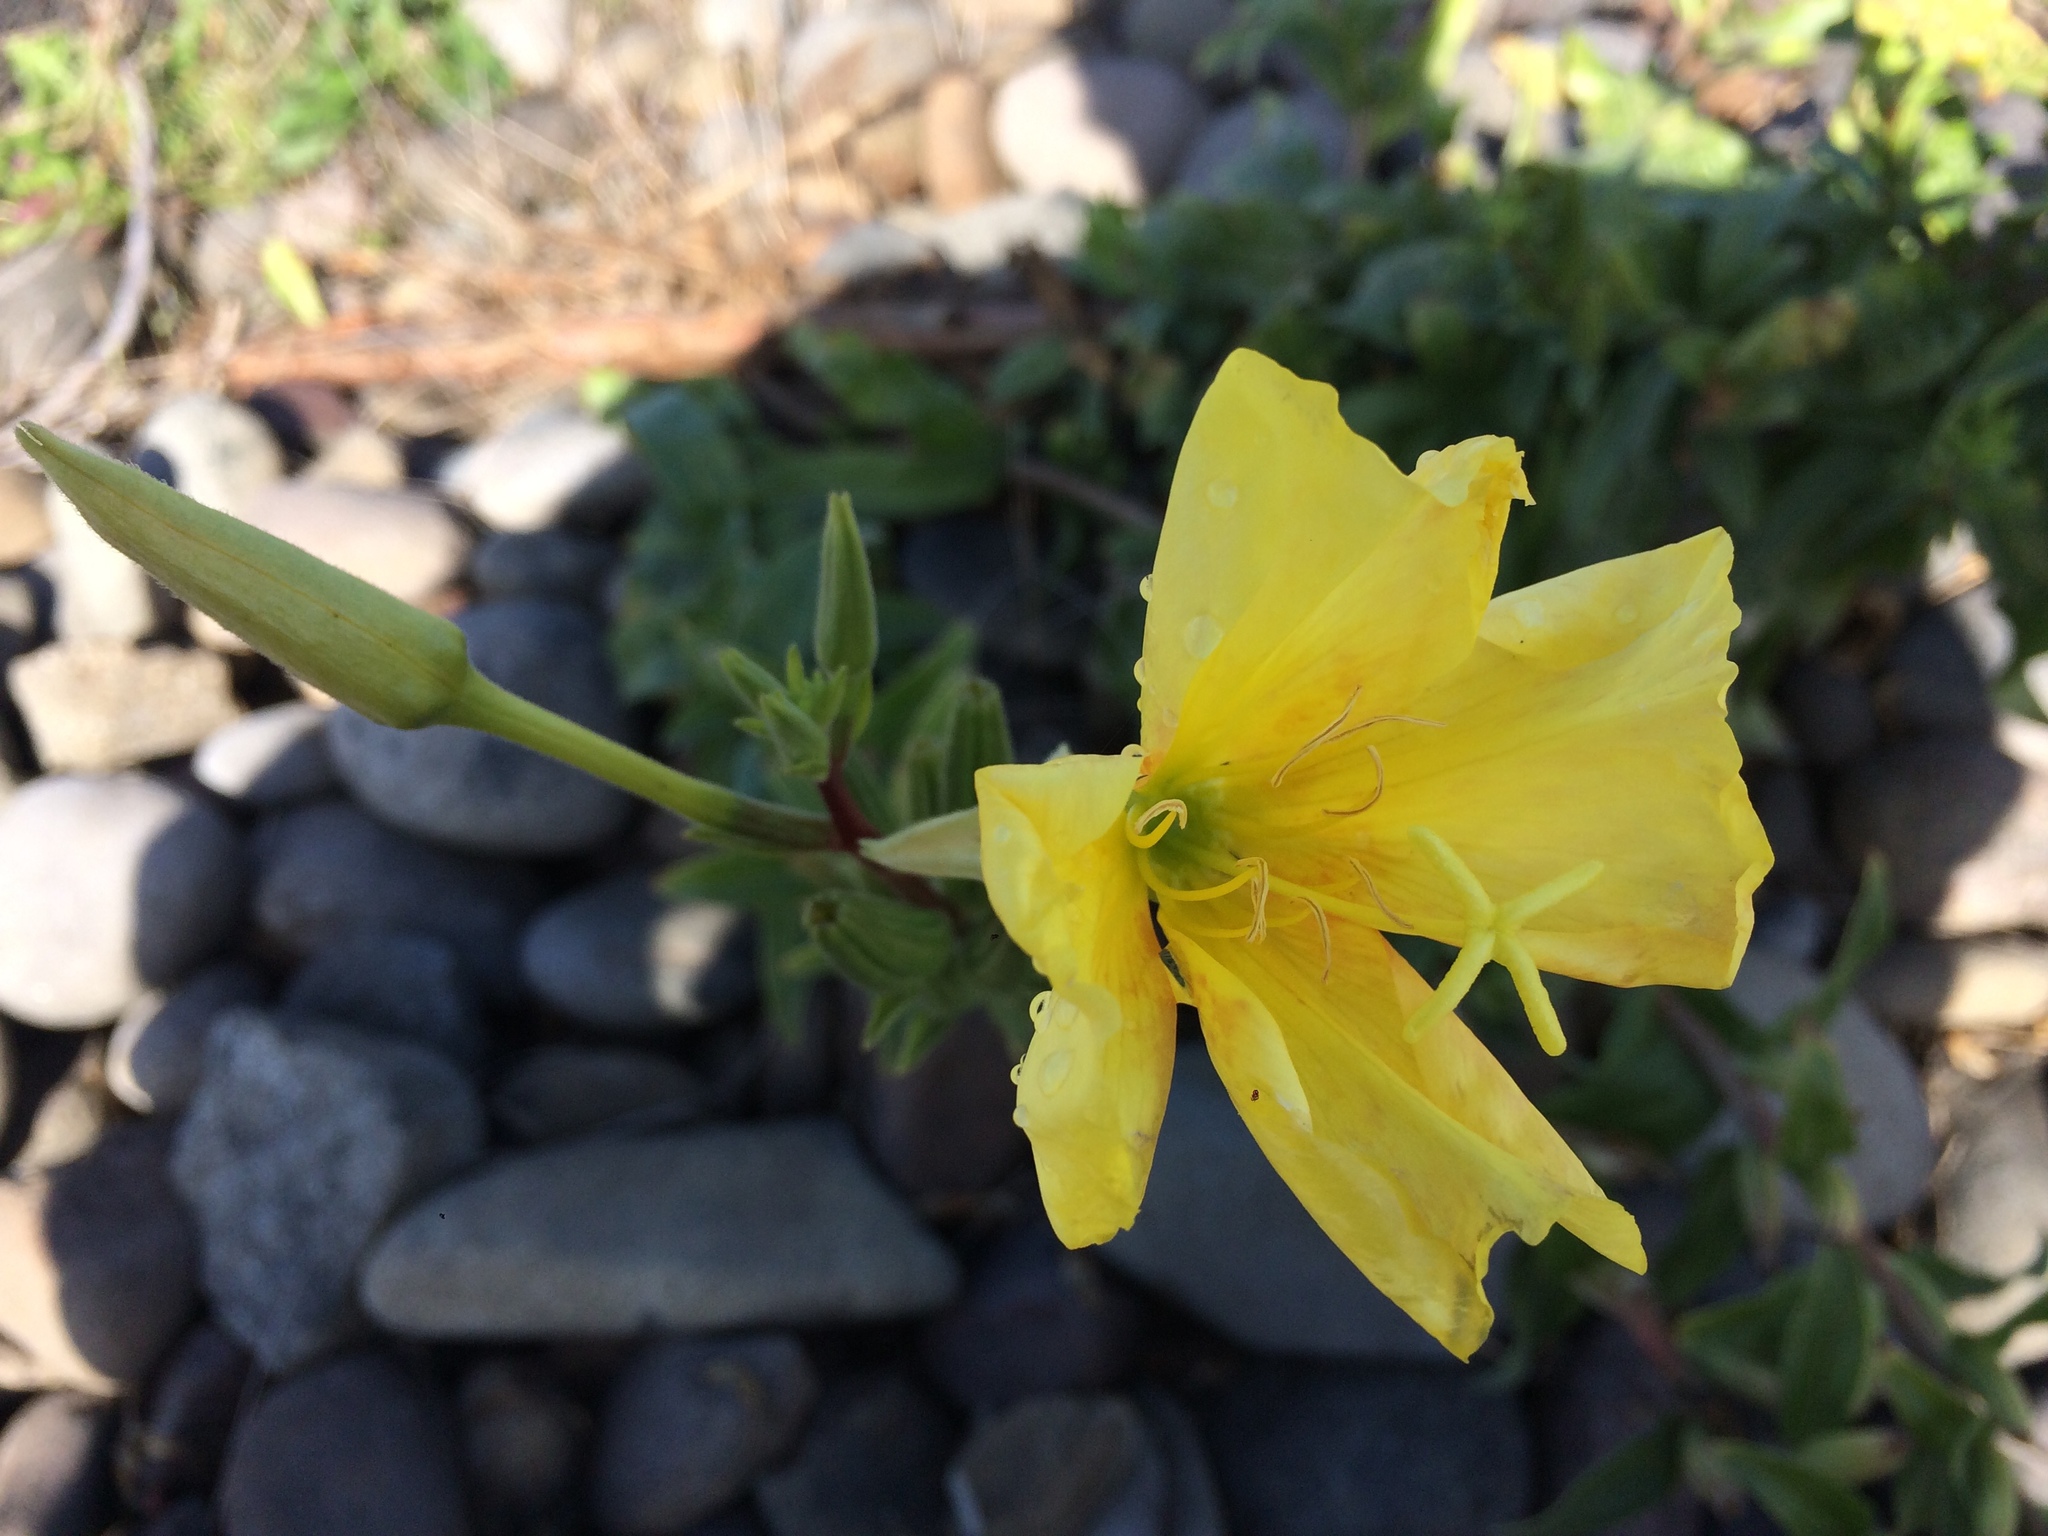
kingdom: Plantae
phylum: Tracheophyta
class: Magnoliopsida
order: Myrtales
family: Onagraceae
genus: Oenothera
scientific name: Oenothera glazioviana
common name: Large-flowered evening-primrose
